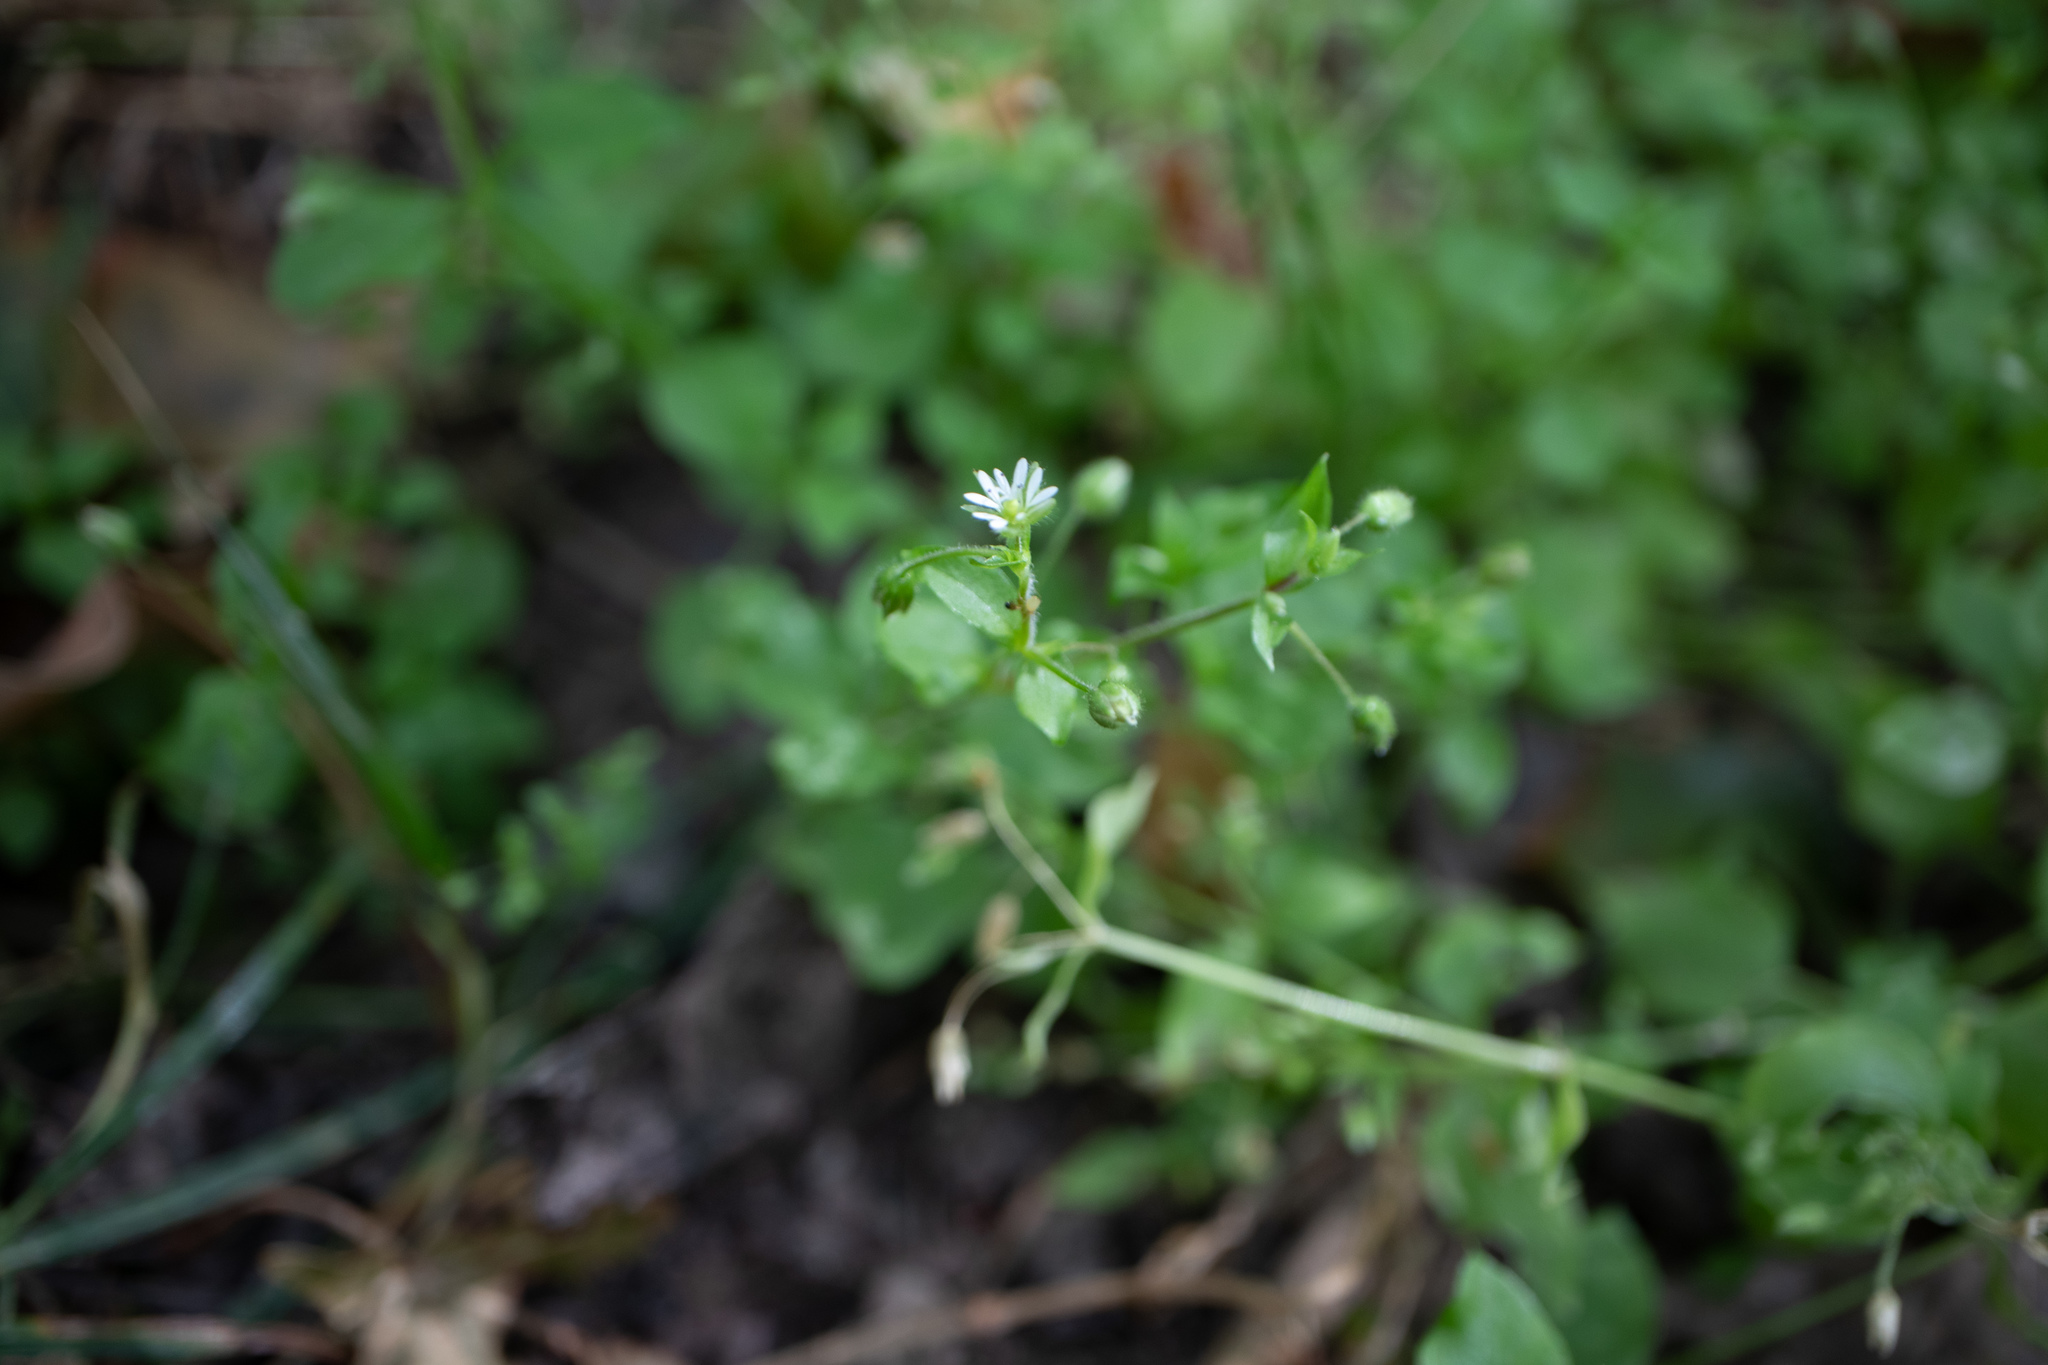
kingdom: Plantae
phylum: Tracheophyta
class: Magnoliopsida
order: Caryophyllales
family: Caryophyllaceae
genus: Stellaria
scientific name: Stellaria media
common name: Common chickweed
